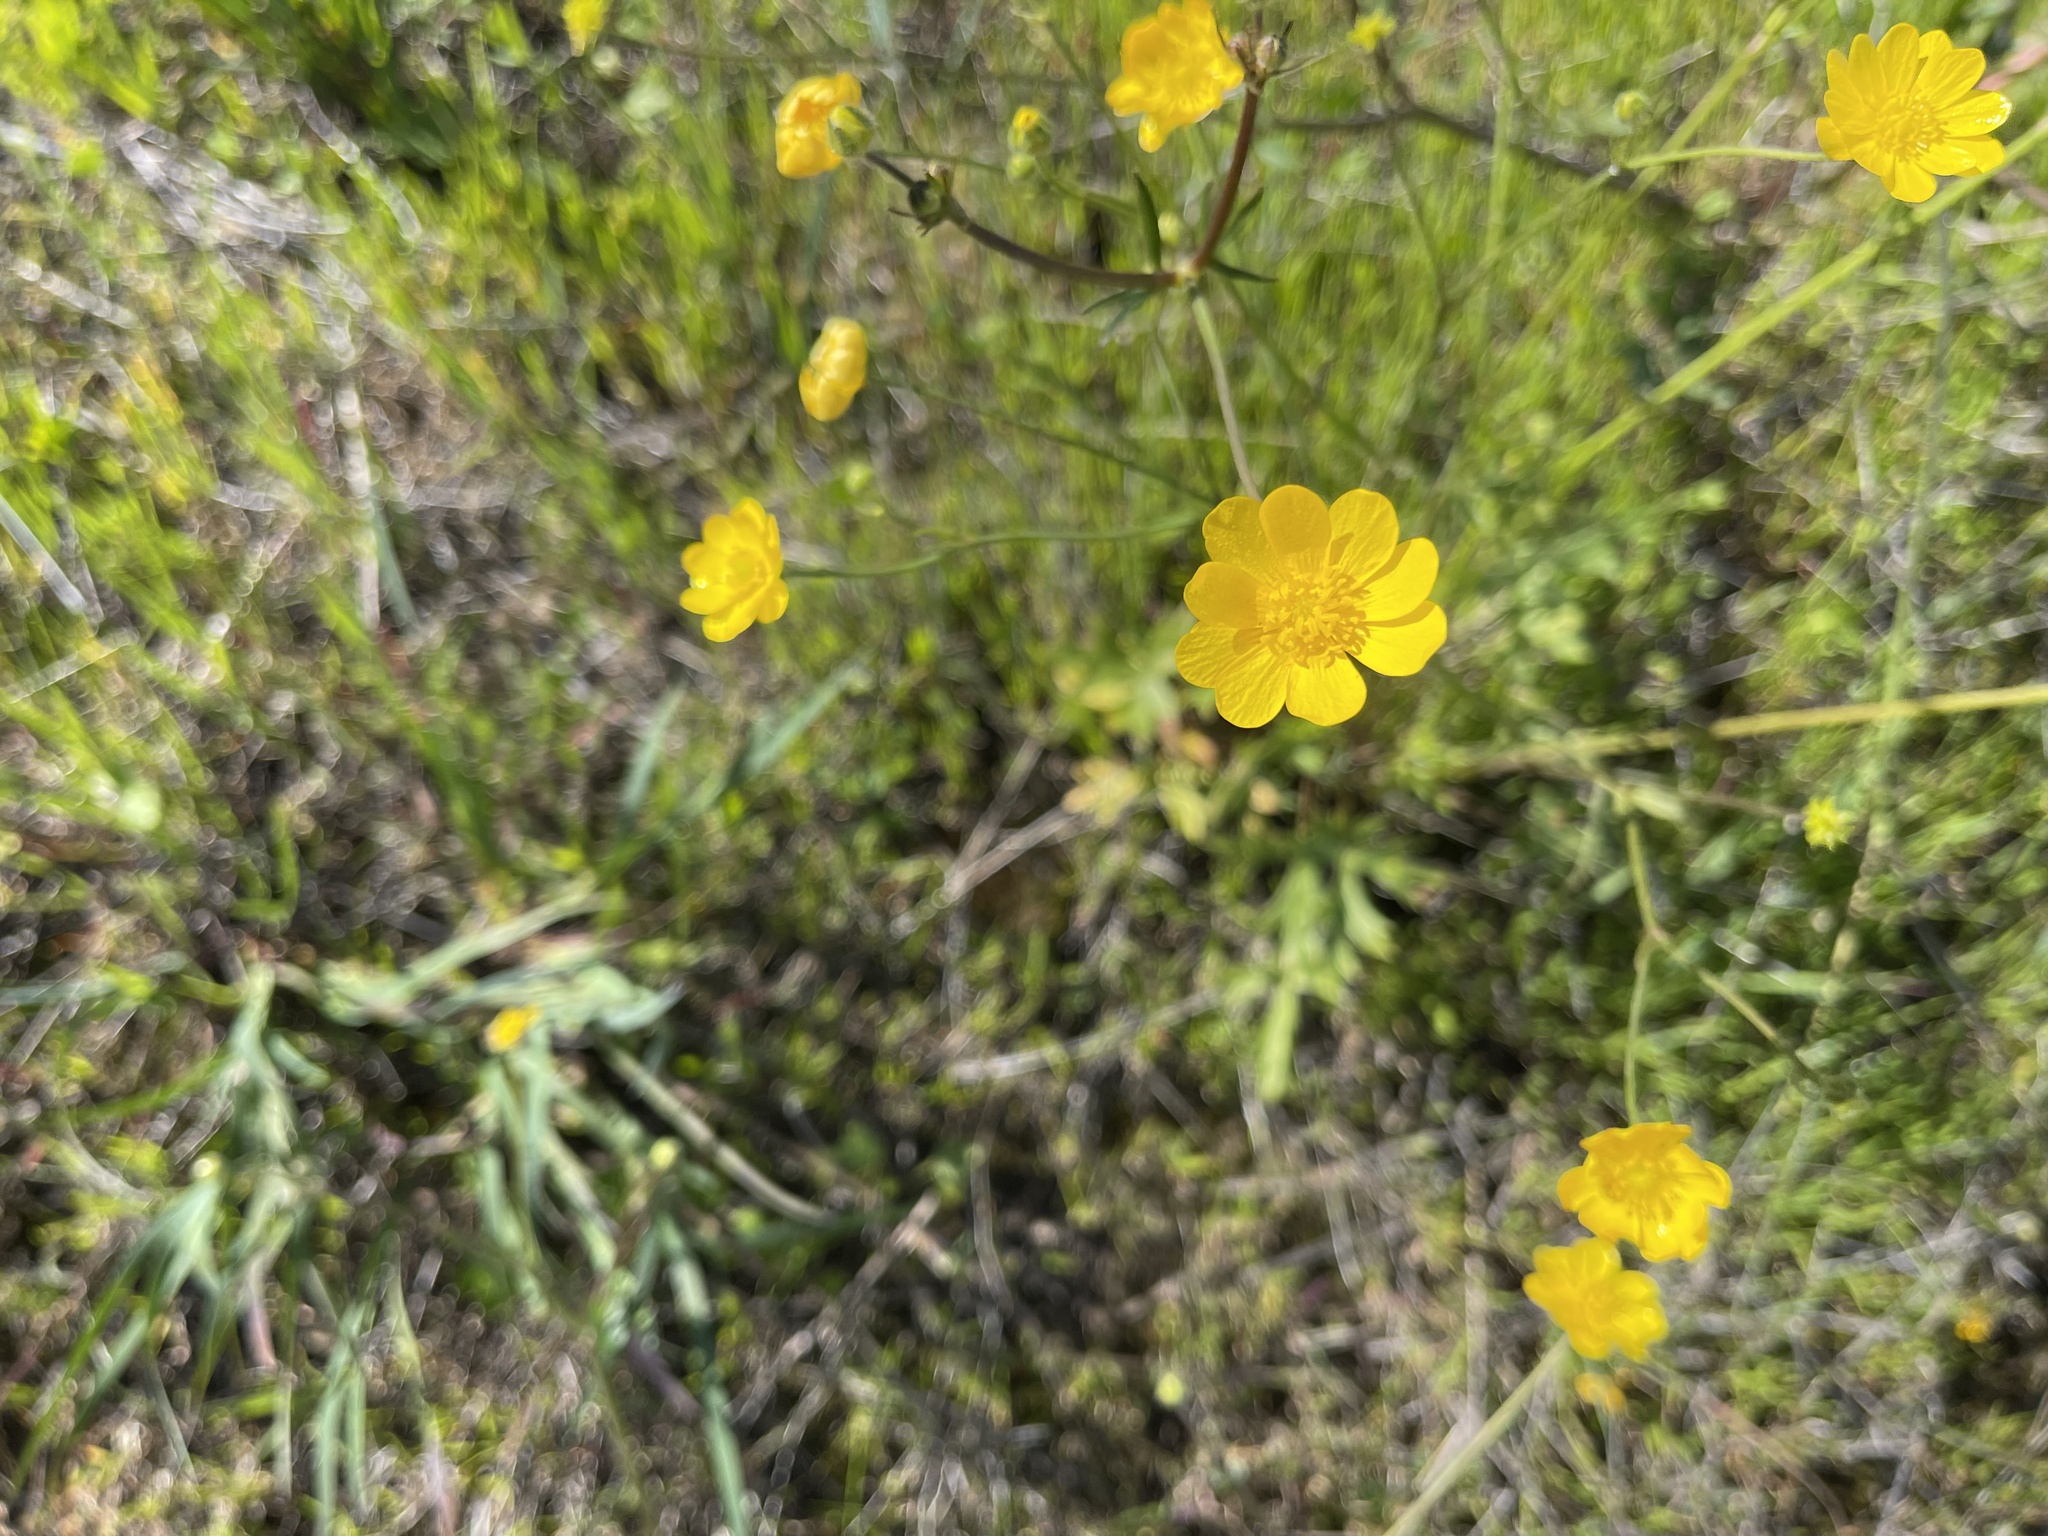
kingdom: Plantae
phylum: Tracheophyta
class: Magnoliopsida
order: Ranunculales
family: Ranunculaceae
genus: Ranunculus
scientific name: Ranunculus californicus
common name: California buttercup
